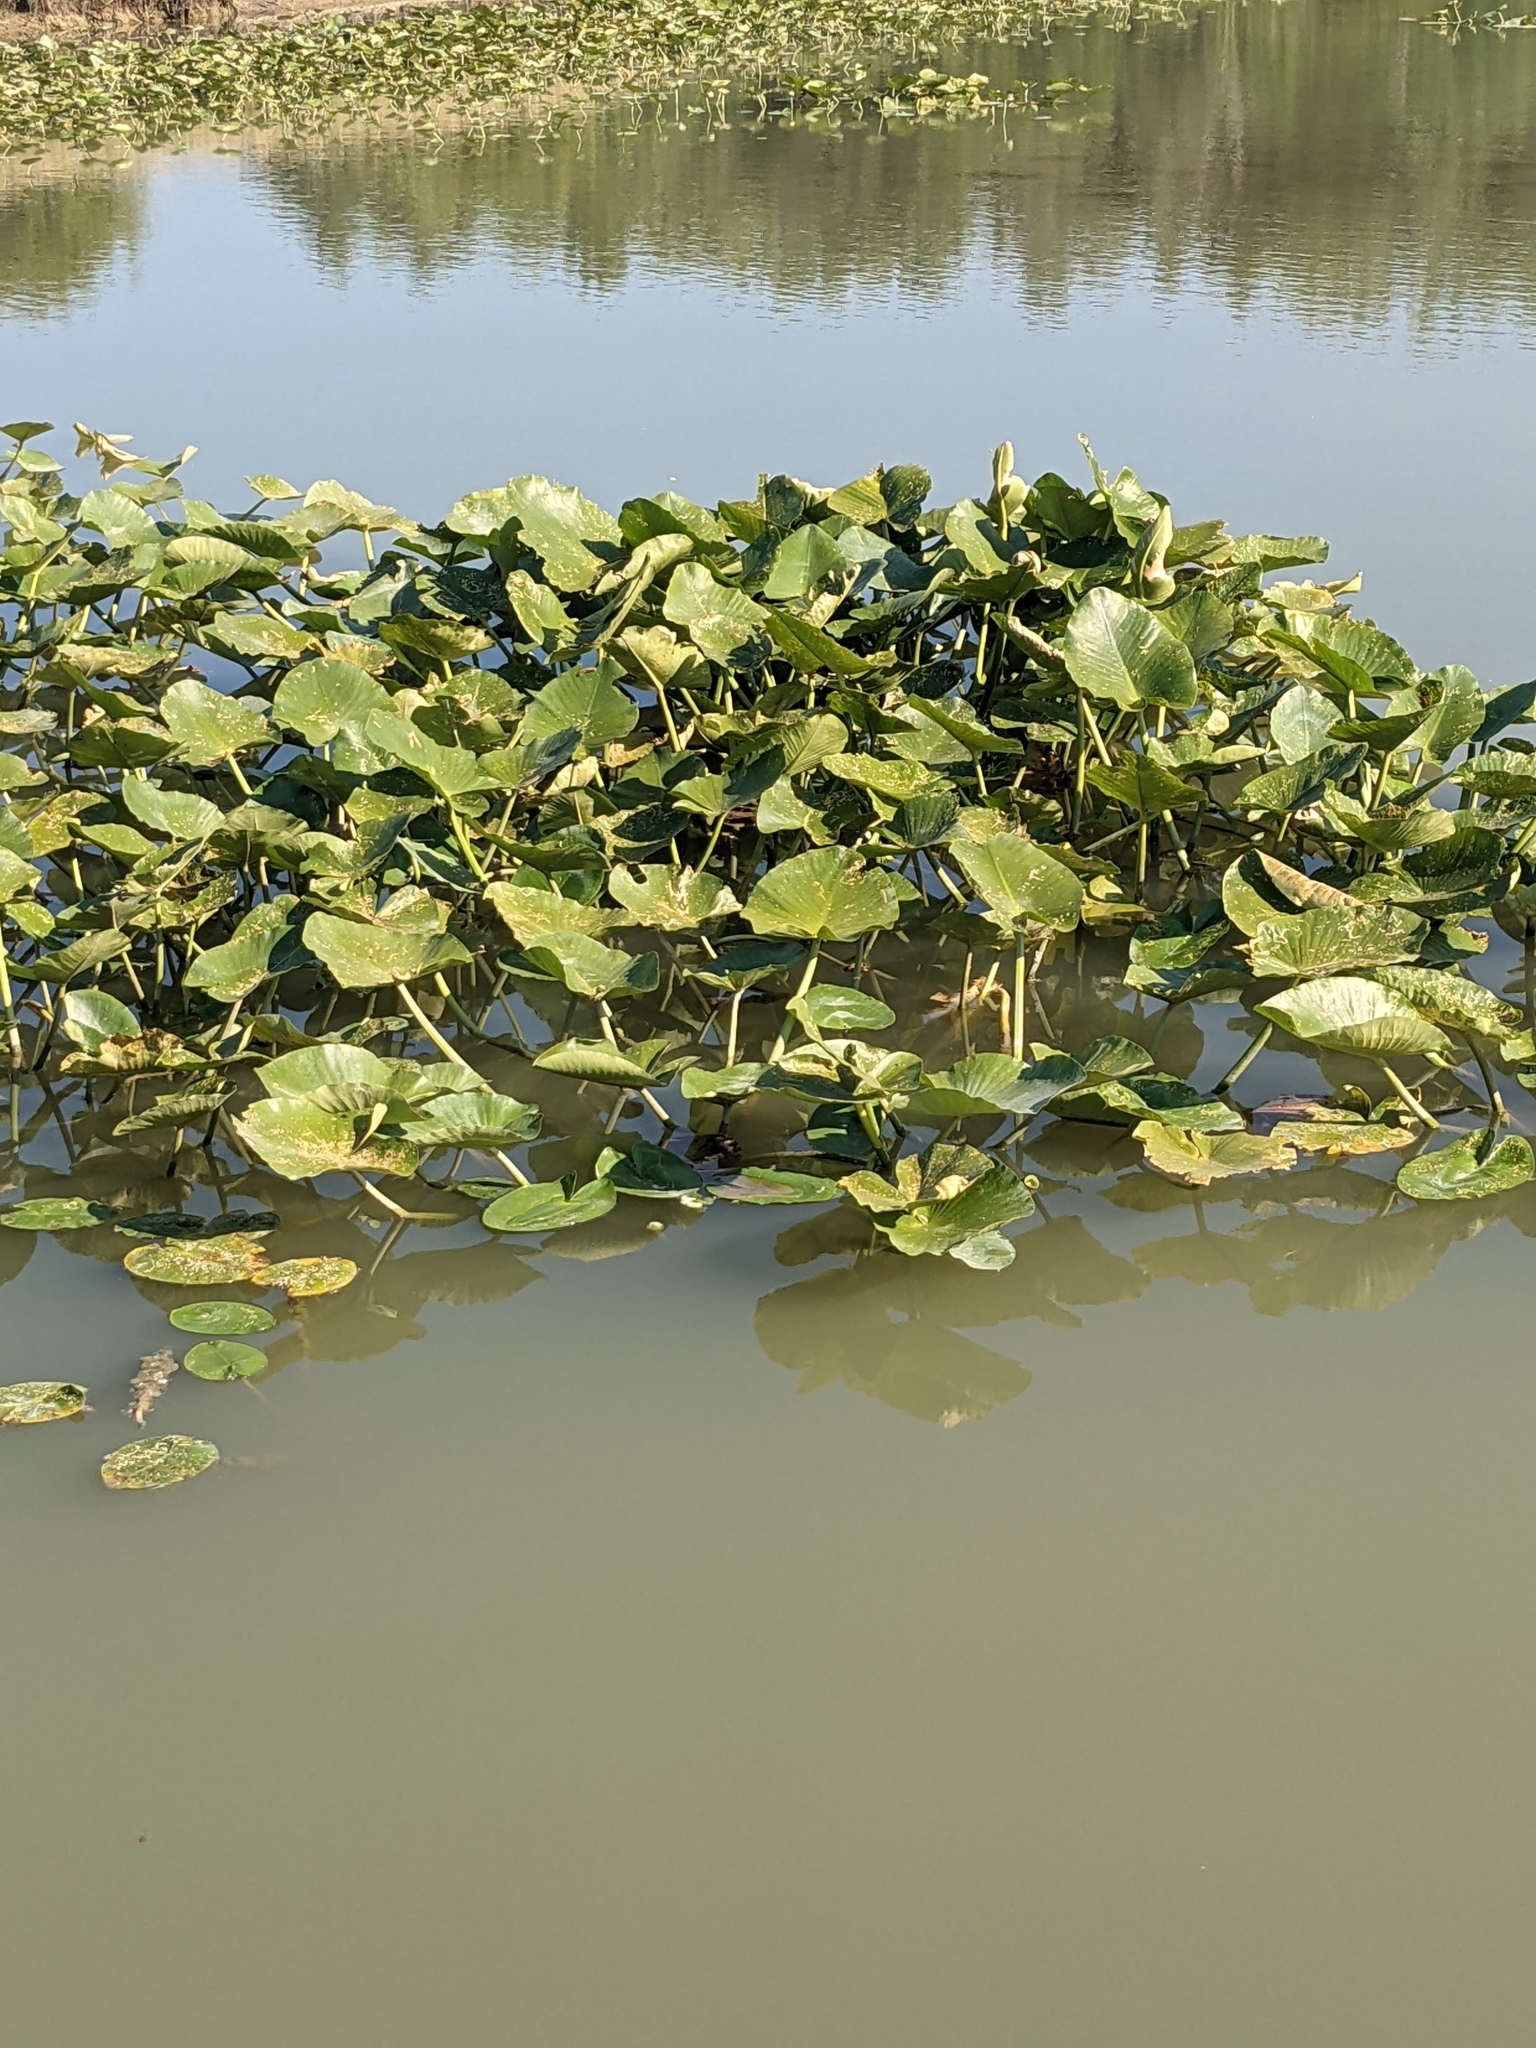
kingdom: Plantae
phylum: Tracheophyta
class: Magnoliopsida
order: Nymphaeales
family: Nymphaeaceae
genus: Nuphar
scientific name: Nuphar advena
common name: Spatter-dock
